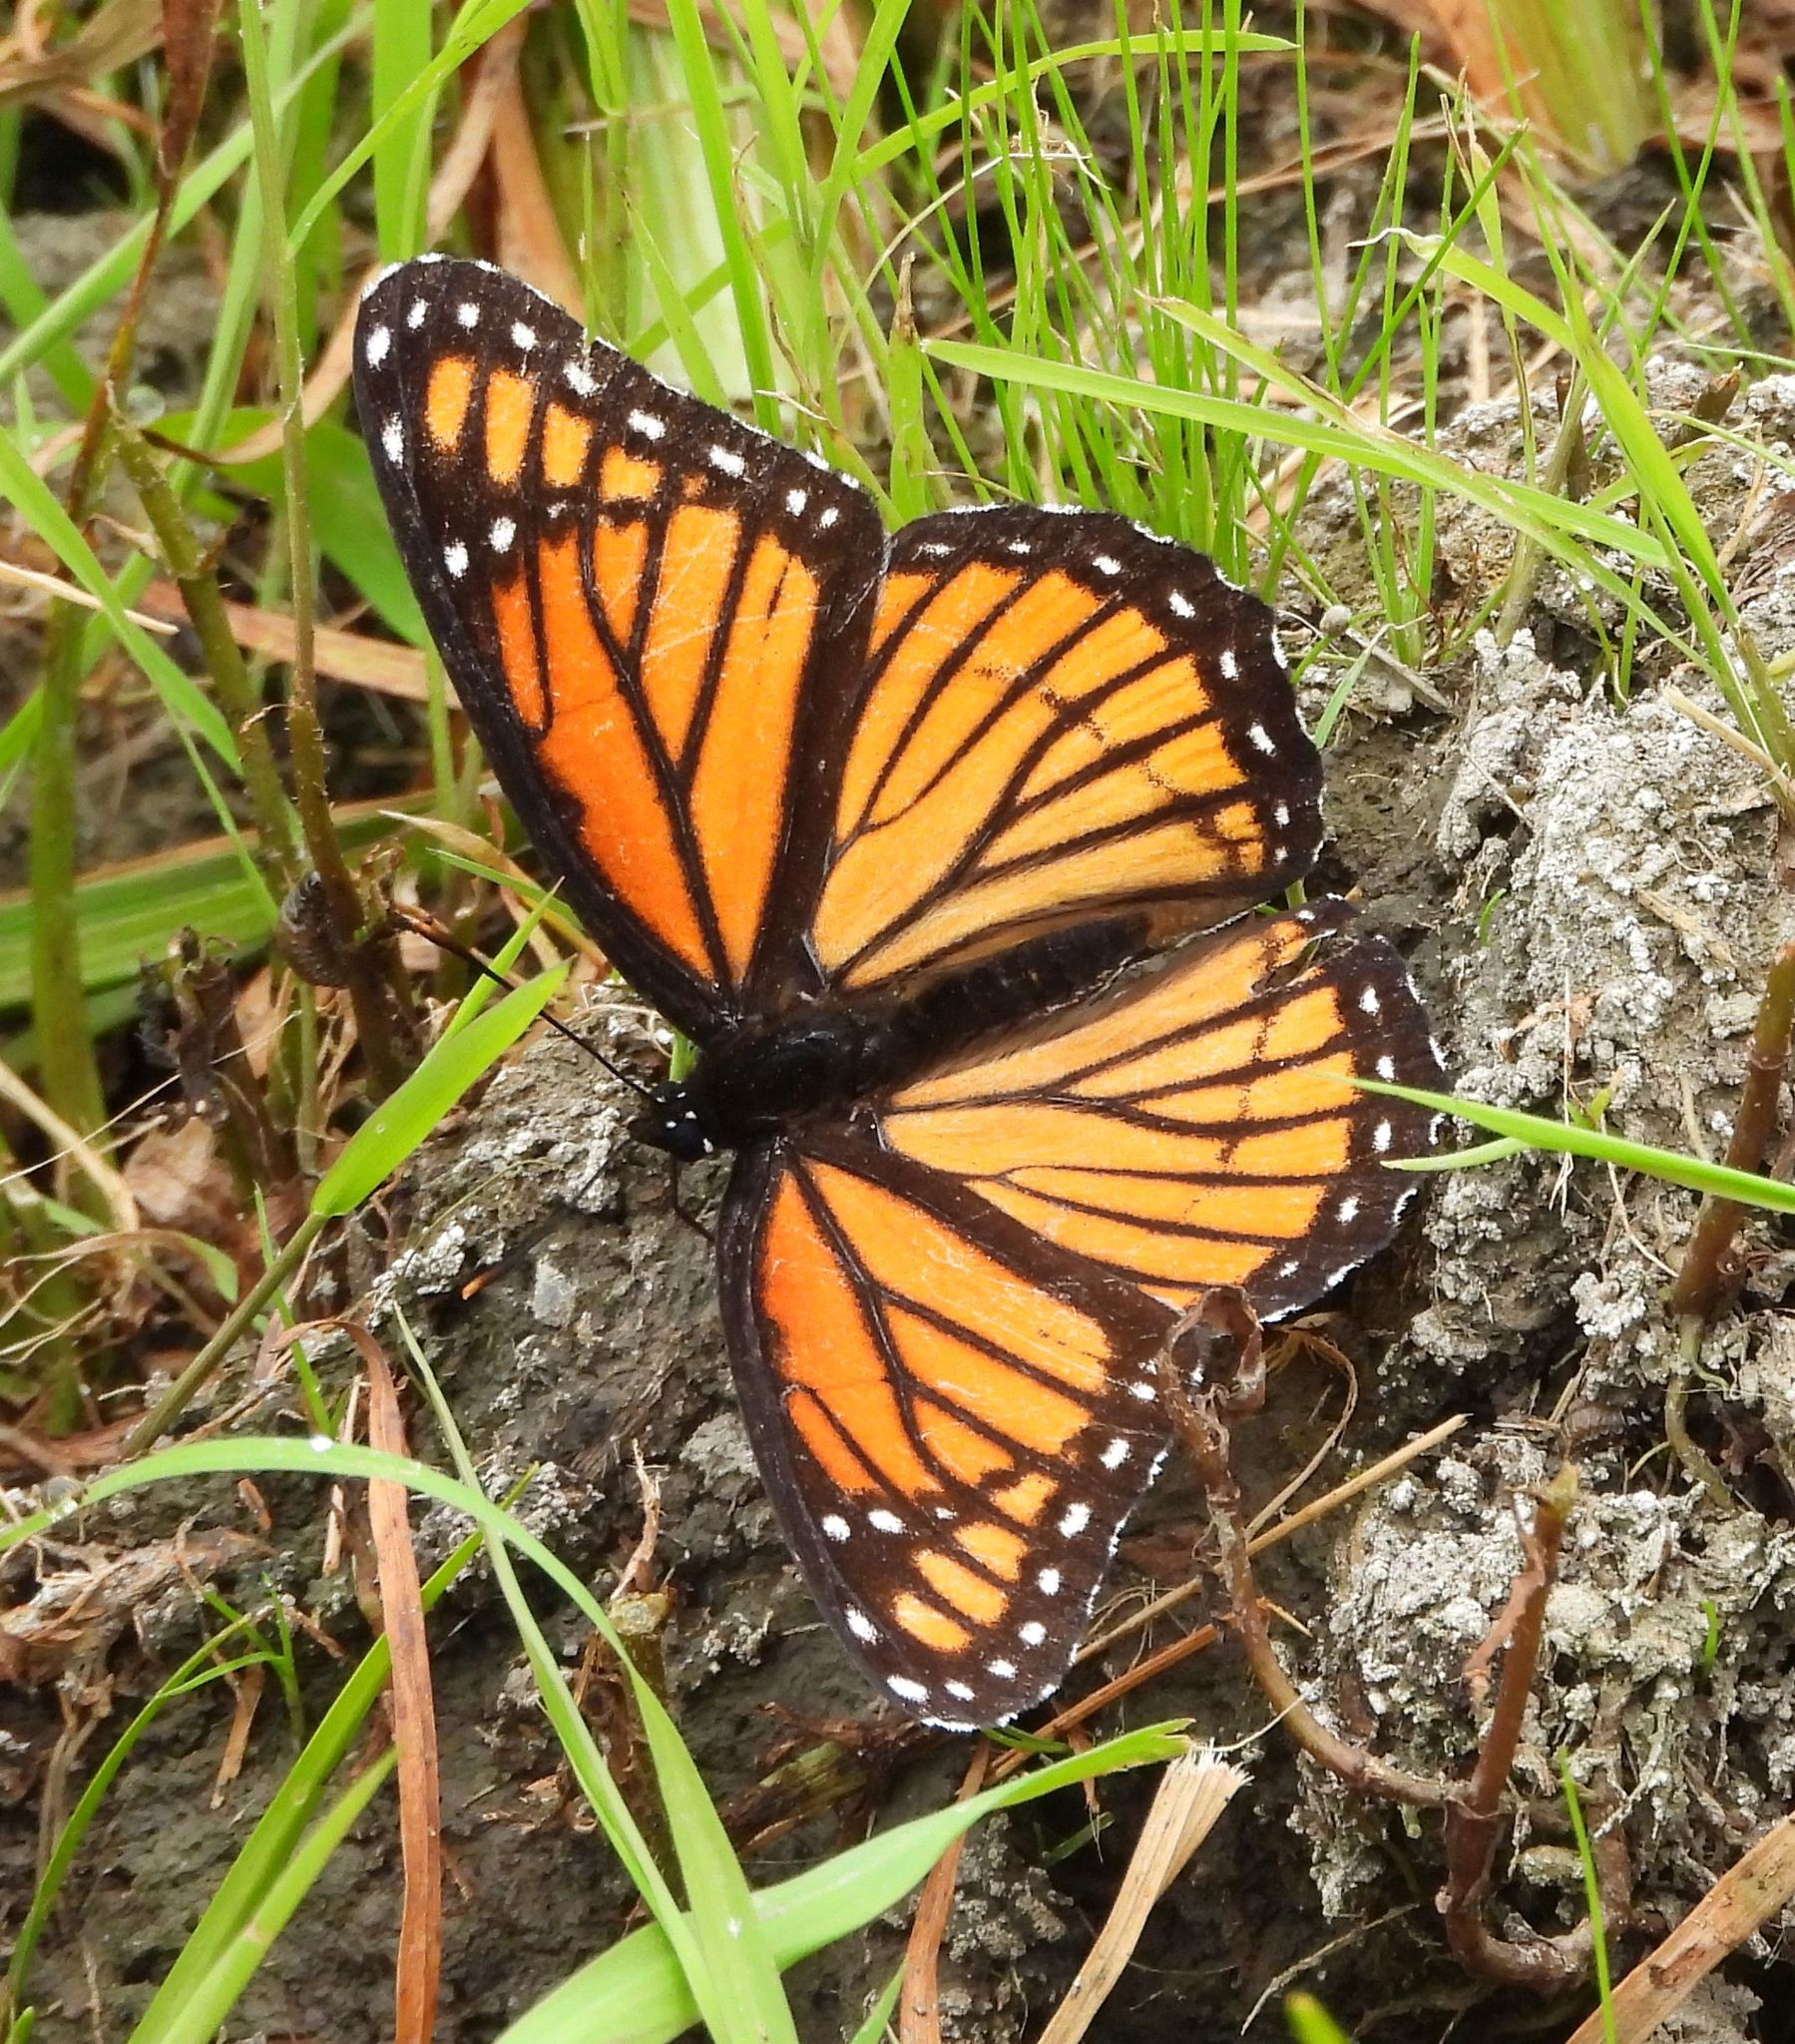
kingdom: Animalia
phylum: Arthropoda
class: Insecta
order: Lepidoptera
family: Nymphalidae
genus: Limenitis
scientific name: Limenitis archippus
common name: Viceroy
